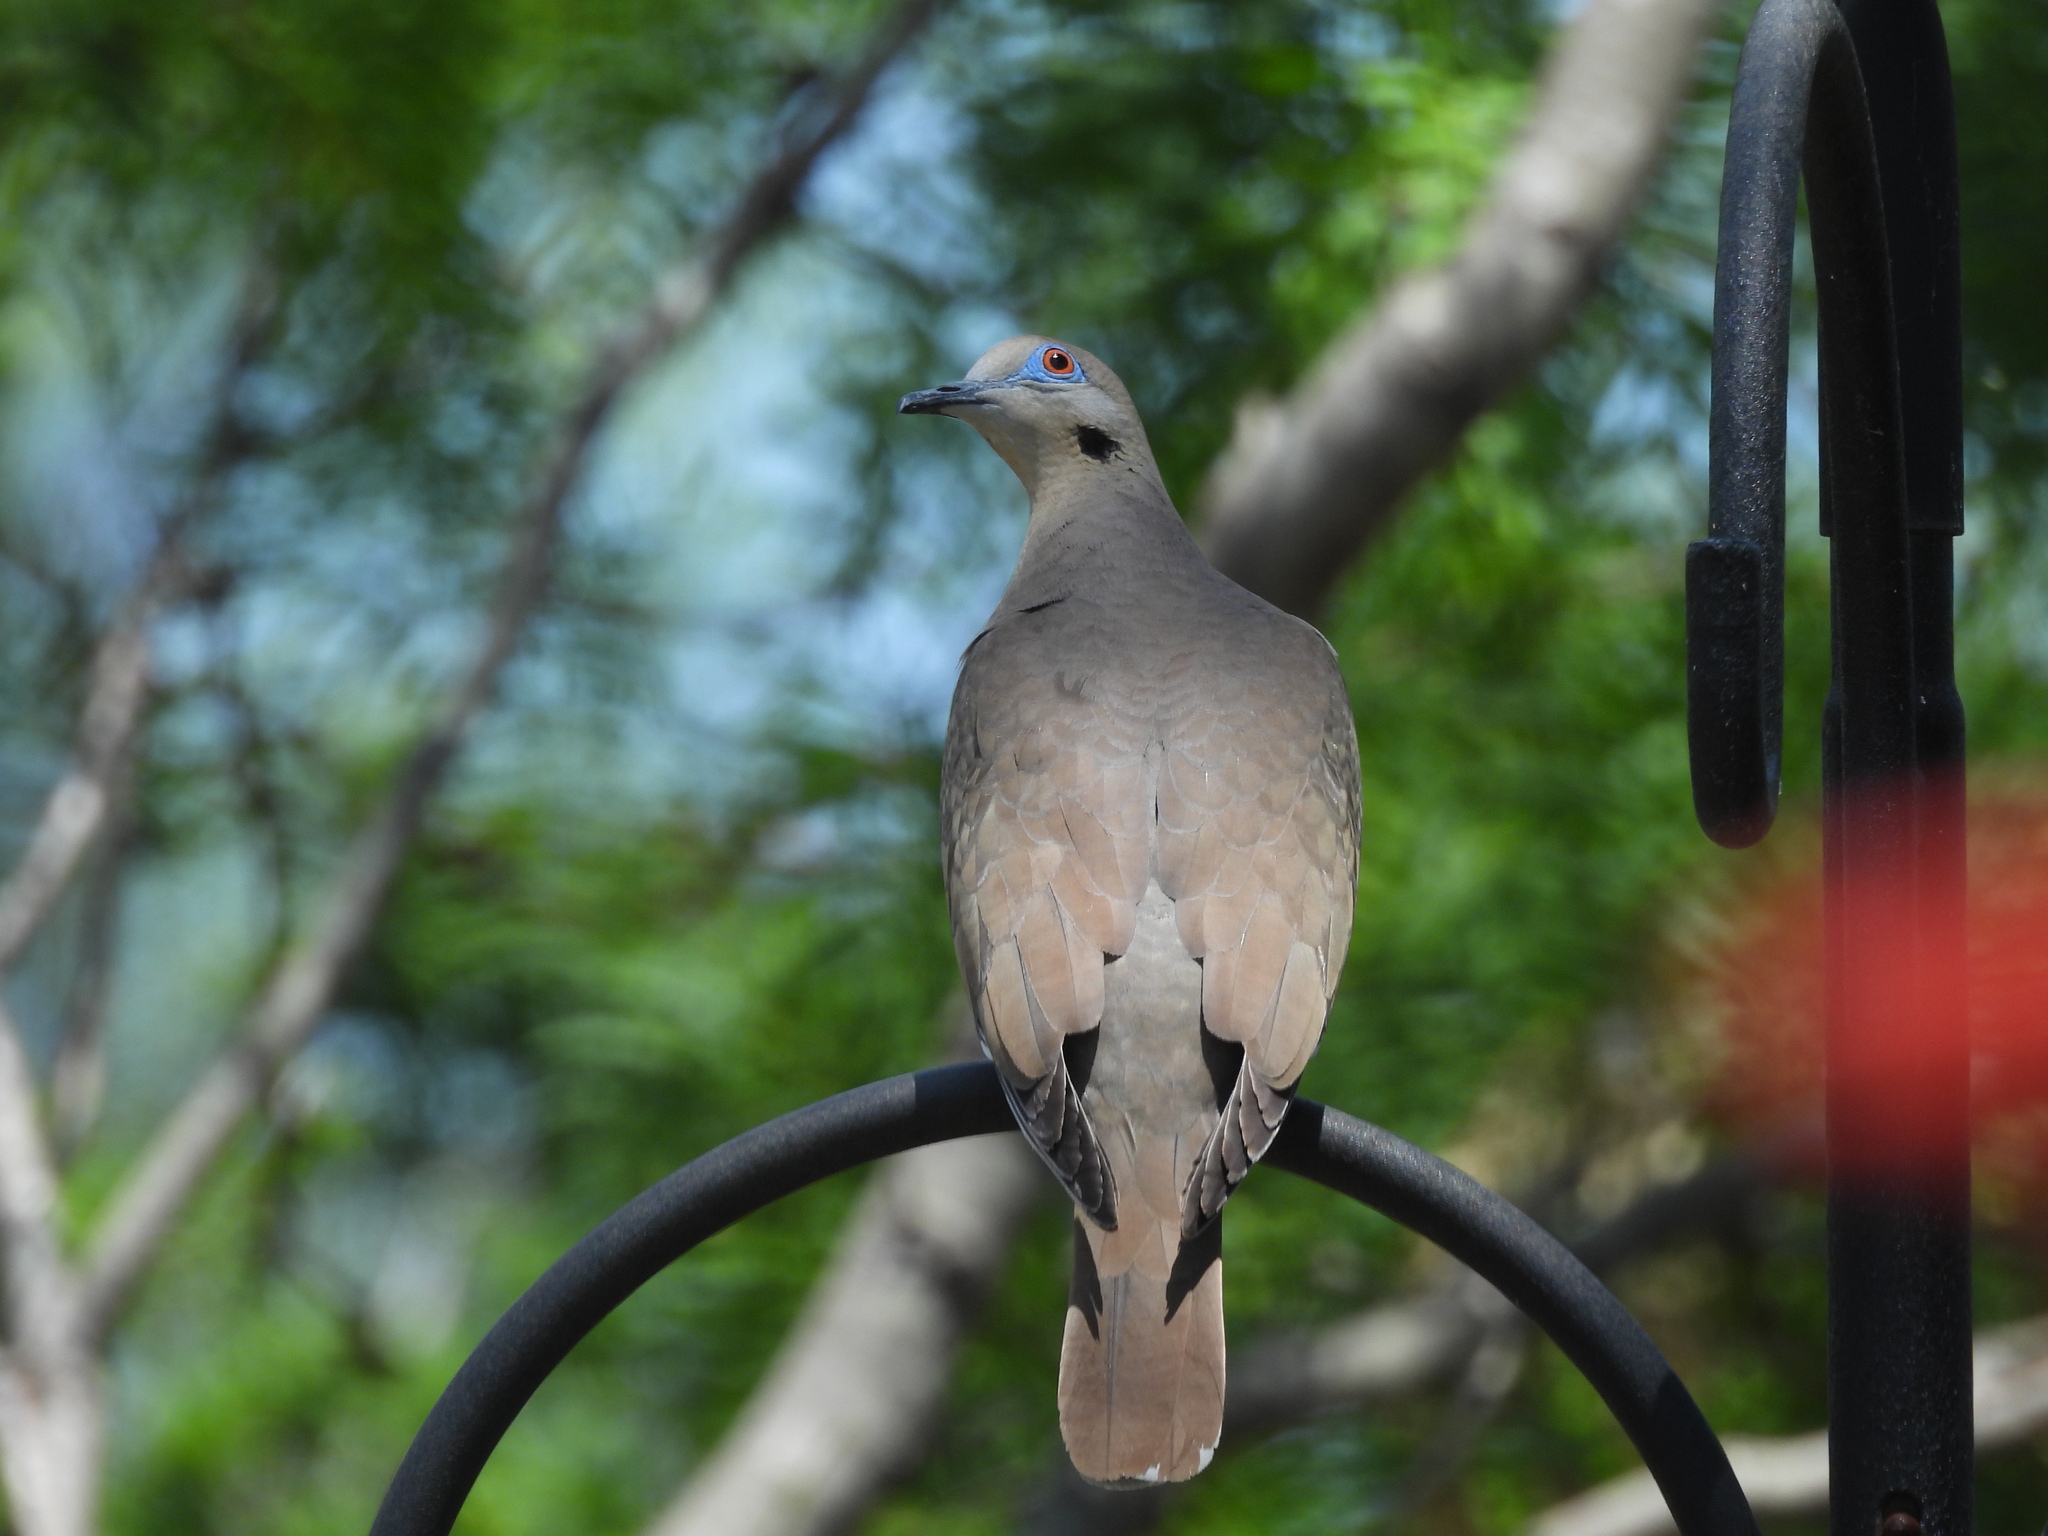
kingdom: Animalia
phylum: Chordata
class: Aves
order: Columbiformes
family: Columbidae
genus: Zenaida
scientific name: Zenaida asiatica
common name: White-winged dove
